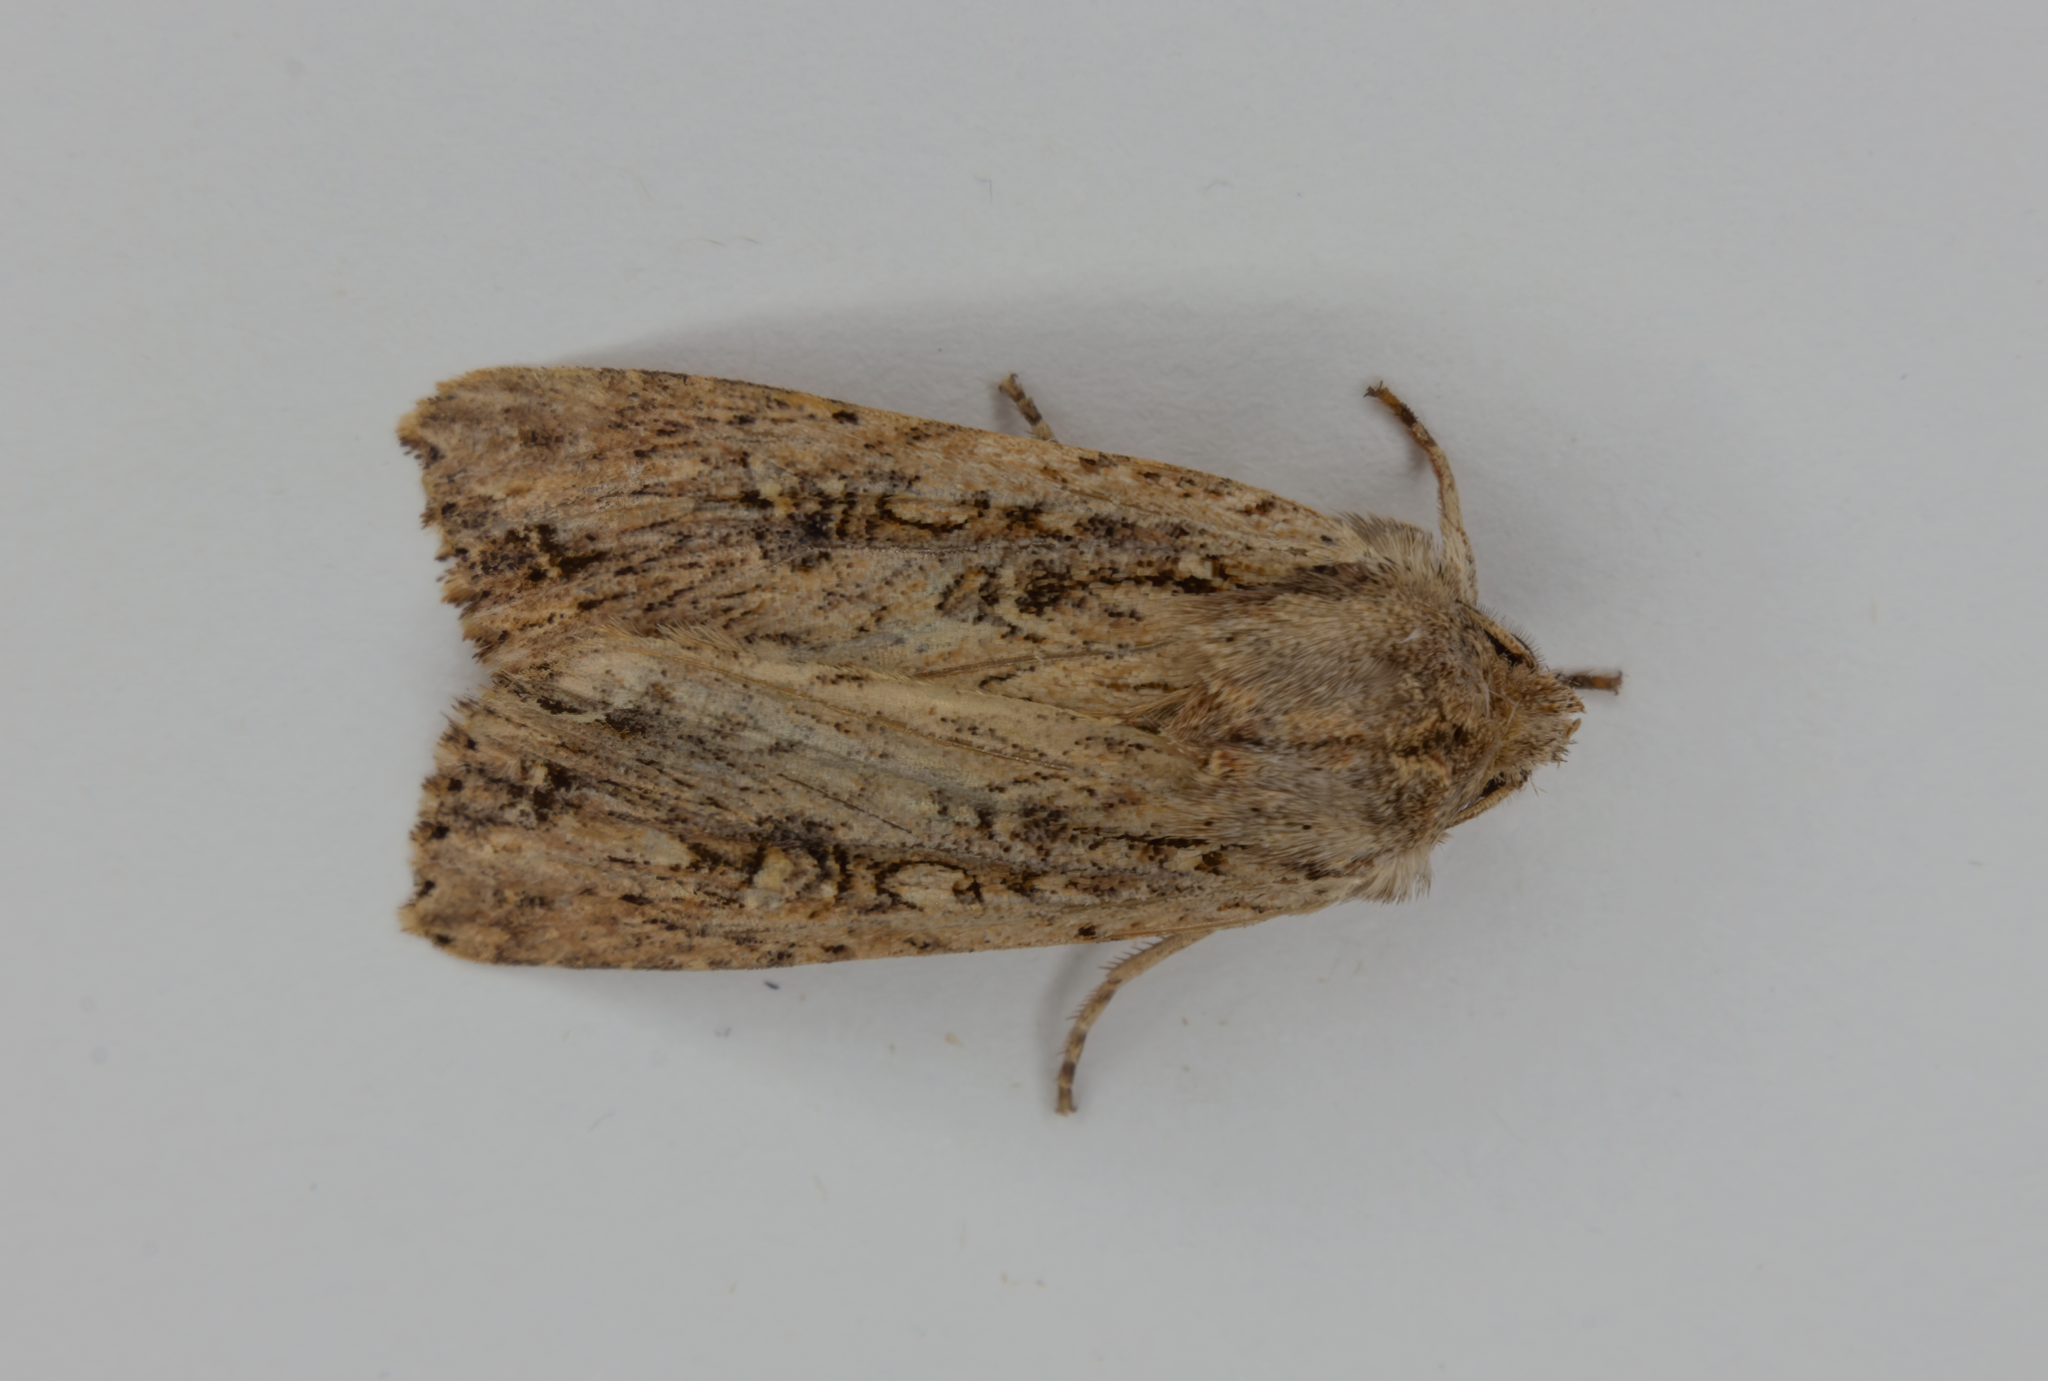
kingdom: Animalia
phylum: Arthropoda
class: Insecta
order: Lepidoptera
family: Noctuidae
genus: Ichneutica
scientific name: Ichneutica lignana
